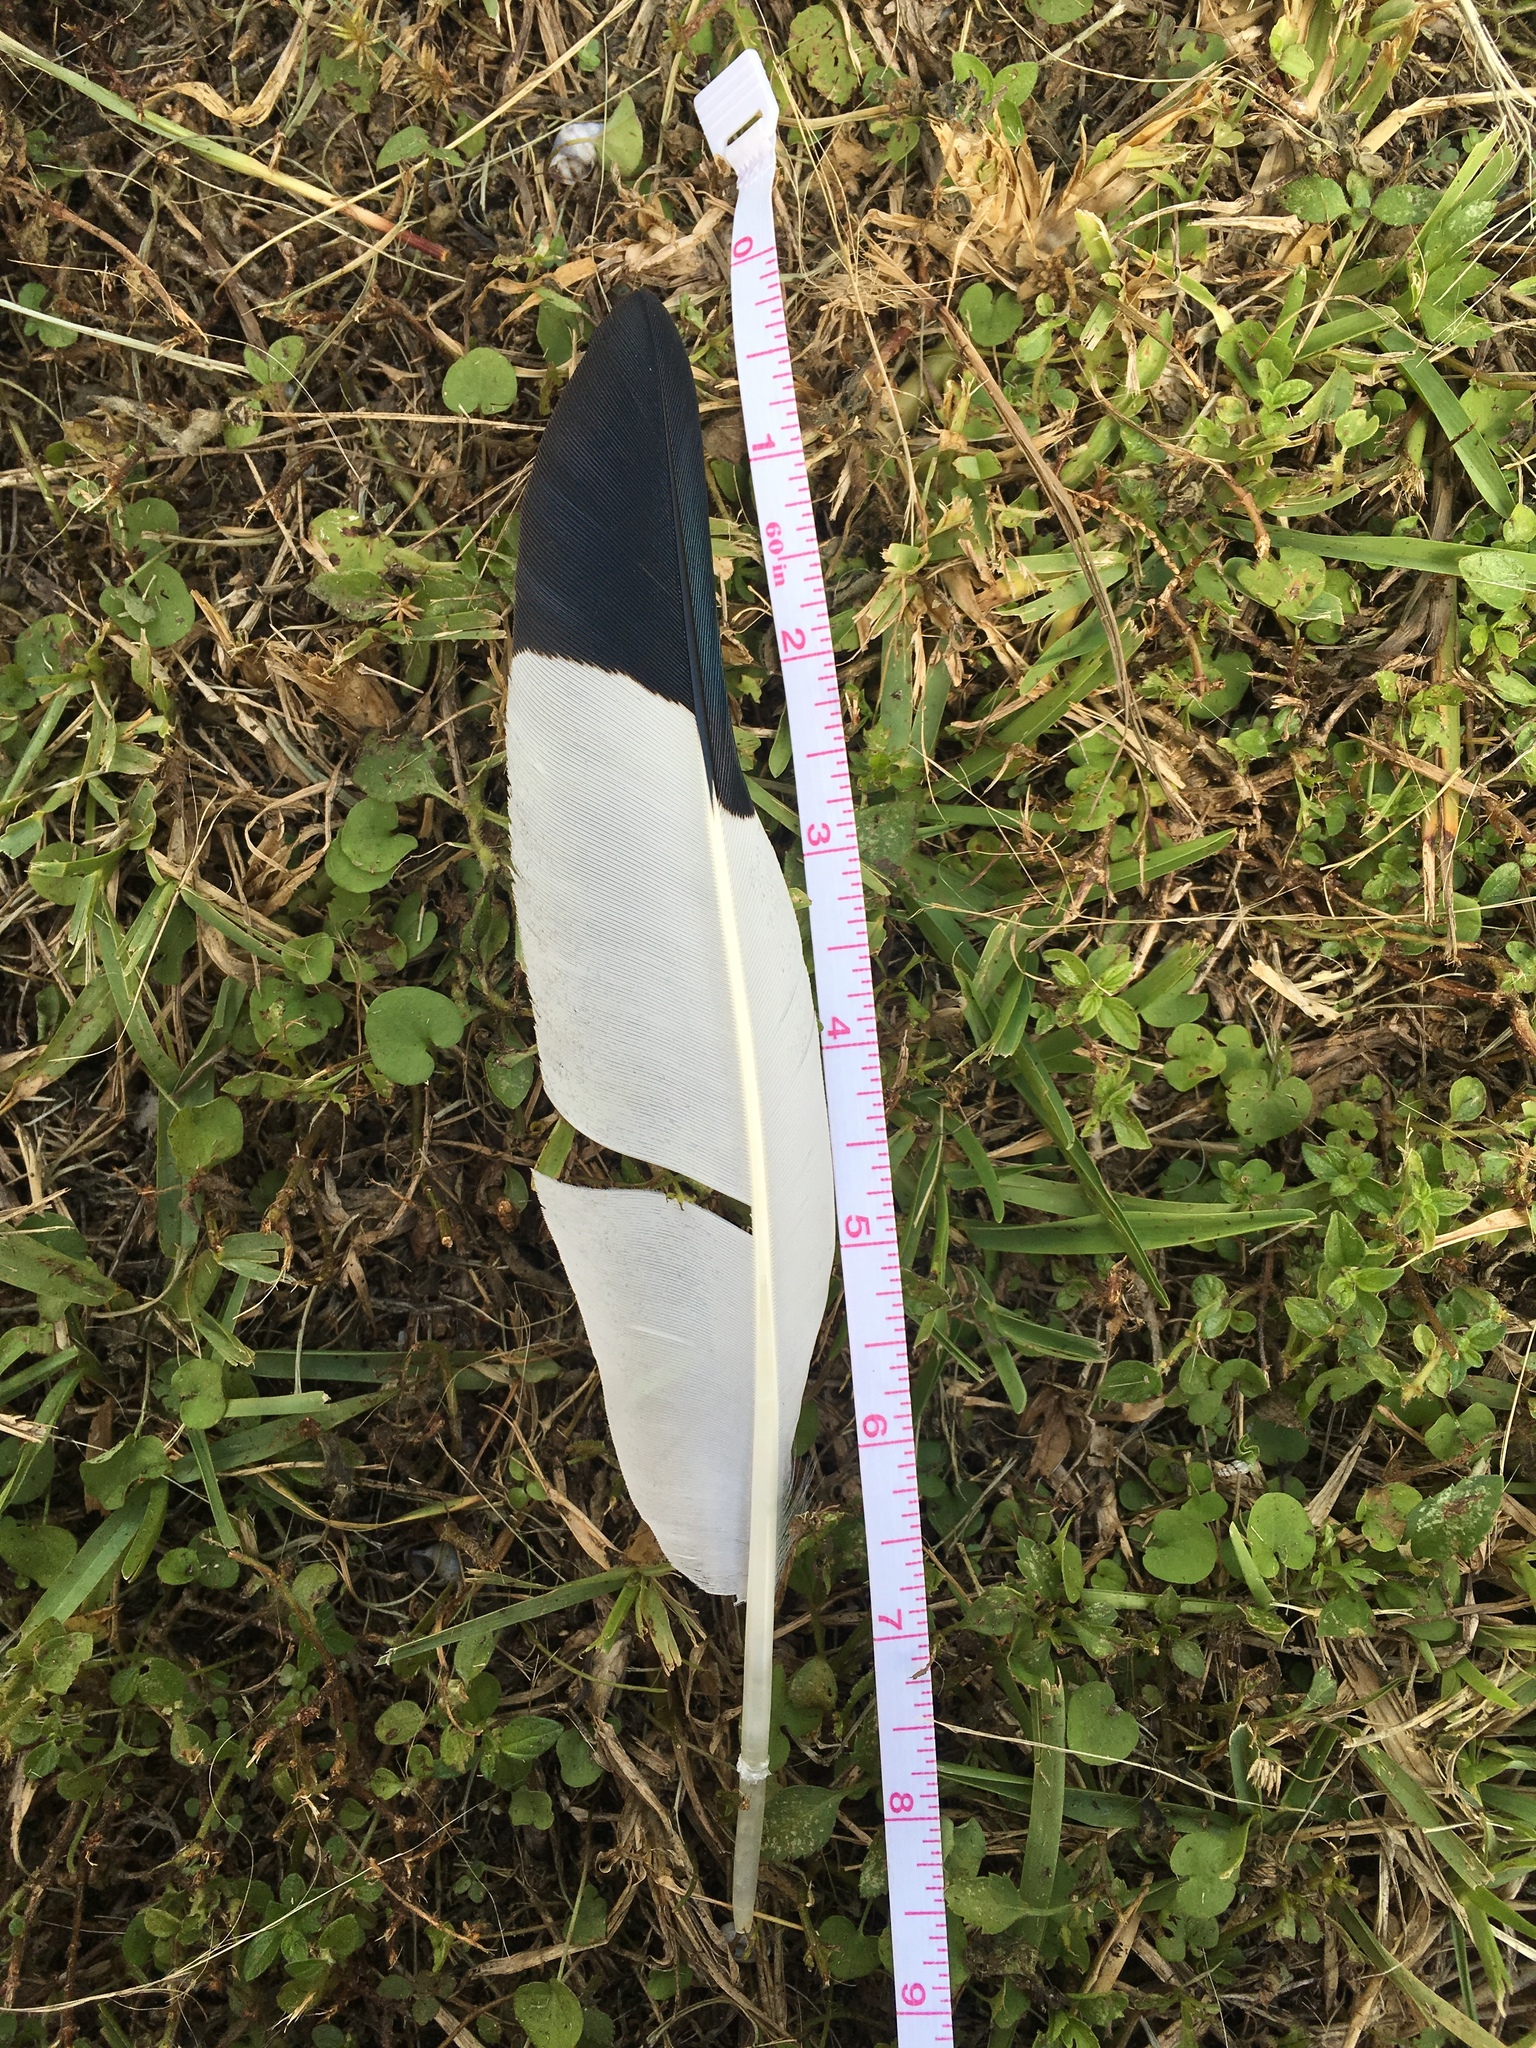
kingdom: Animalia
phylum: Chordata
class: Aves
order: Pelecaniformes
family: Threskiornithidae
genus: Eudocimus
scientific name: Eudocimus albus
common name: White ibis
